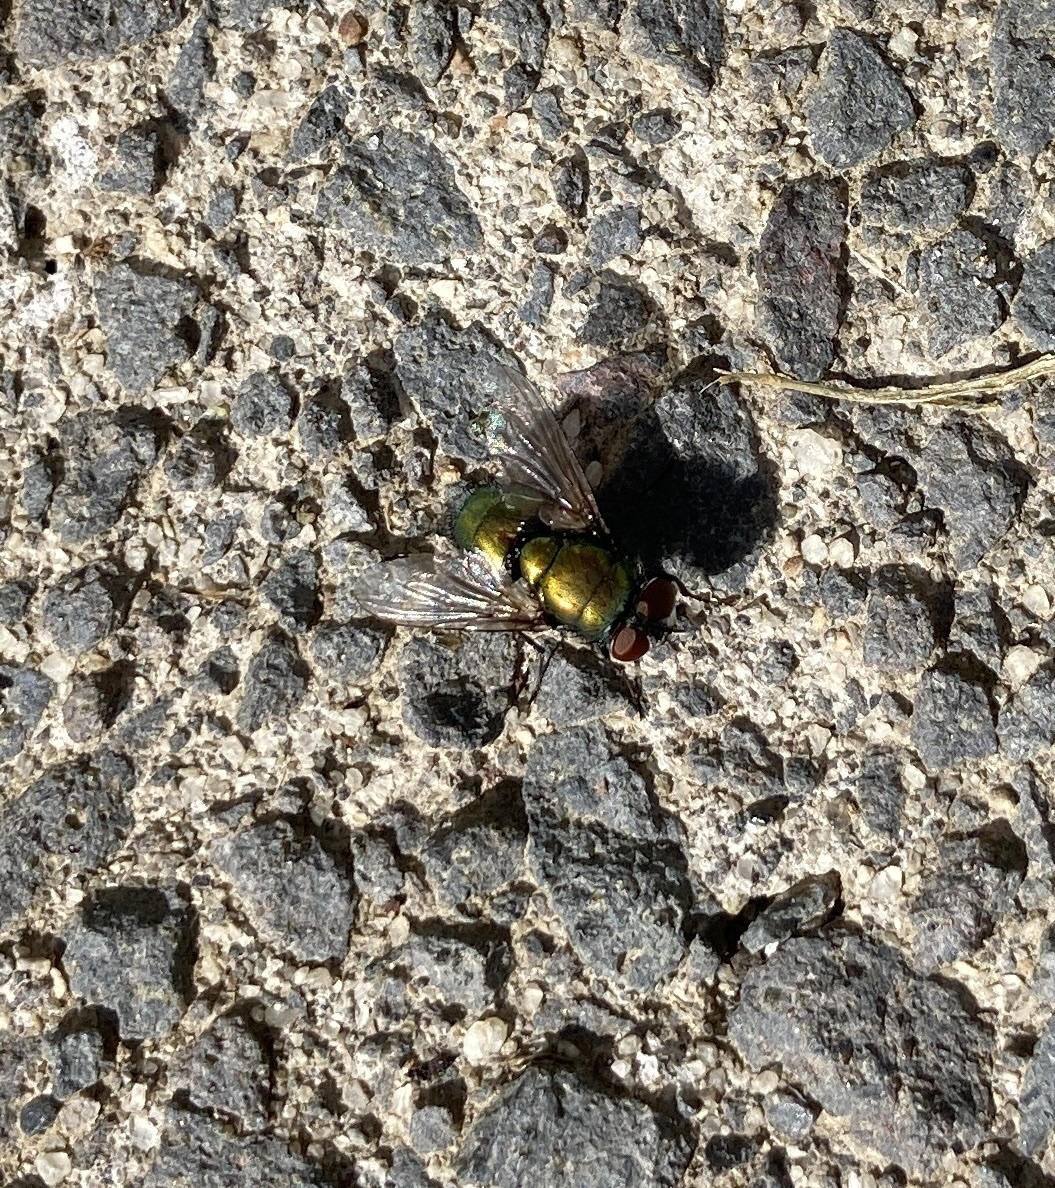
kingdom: Animalia
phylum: Arthropoda
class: Insecta
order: Diptera
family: Calliphoridae
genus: Lucilia
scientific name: Lucilia sericata
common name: Blow fly
